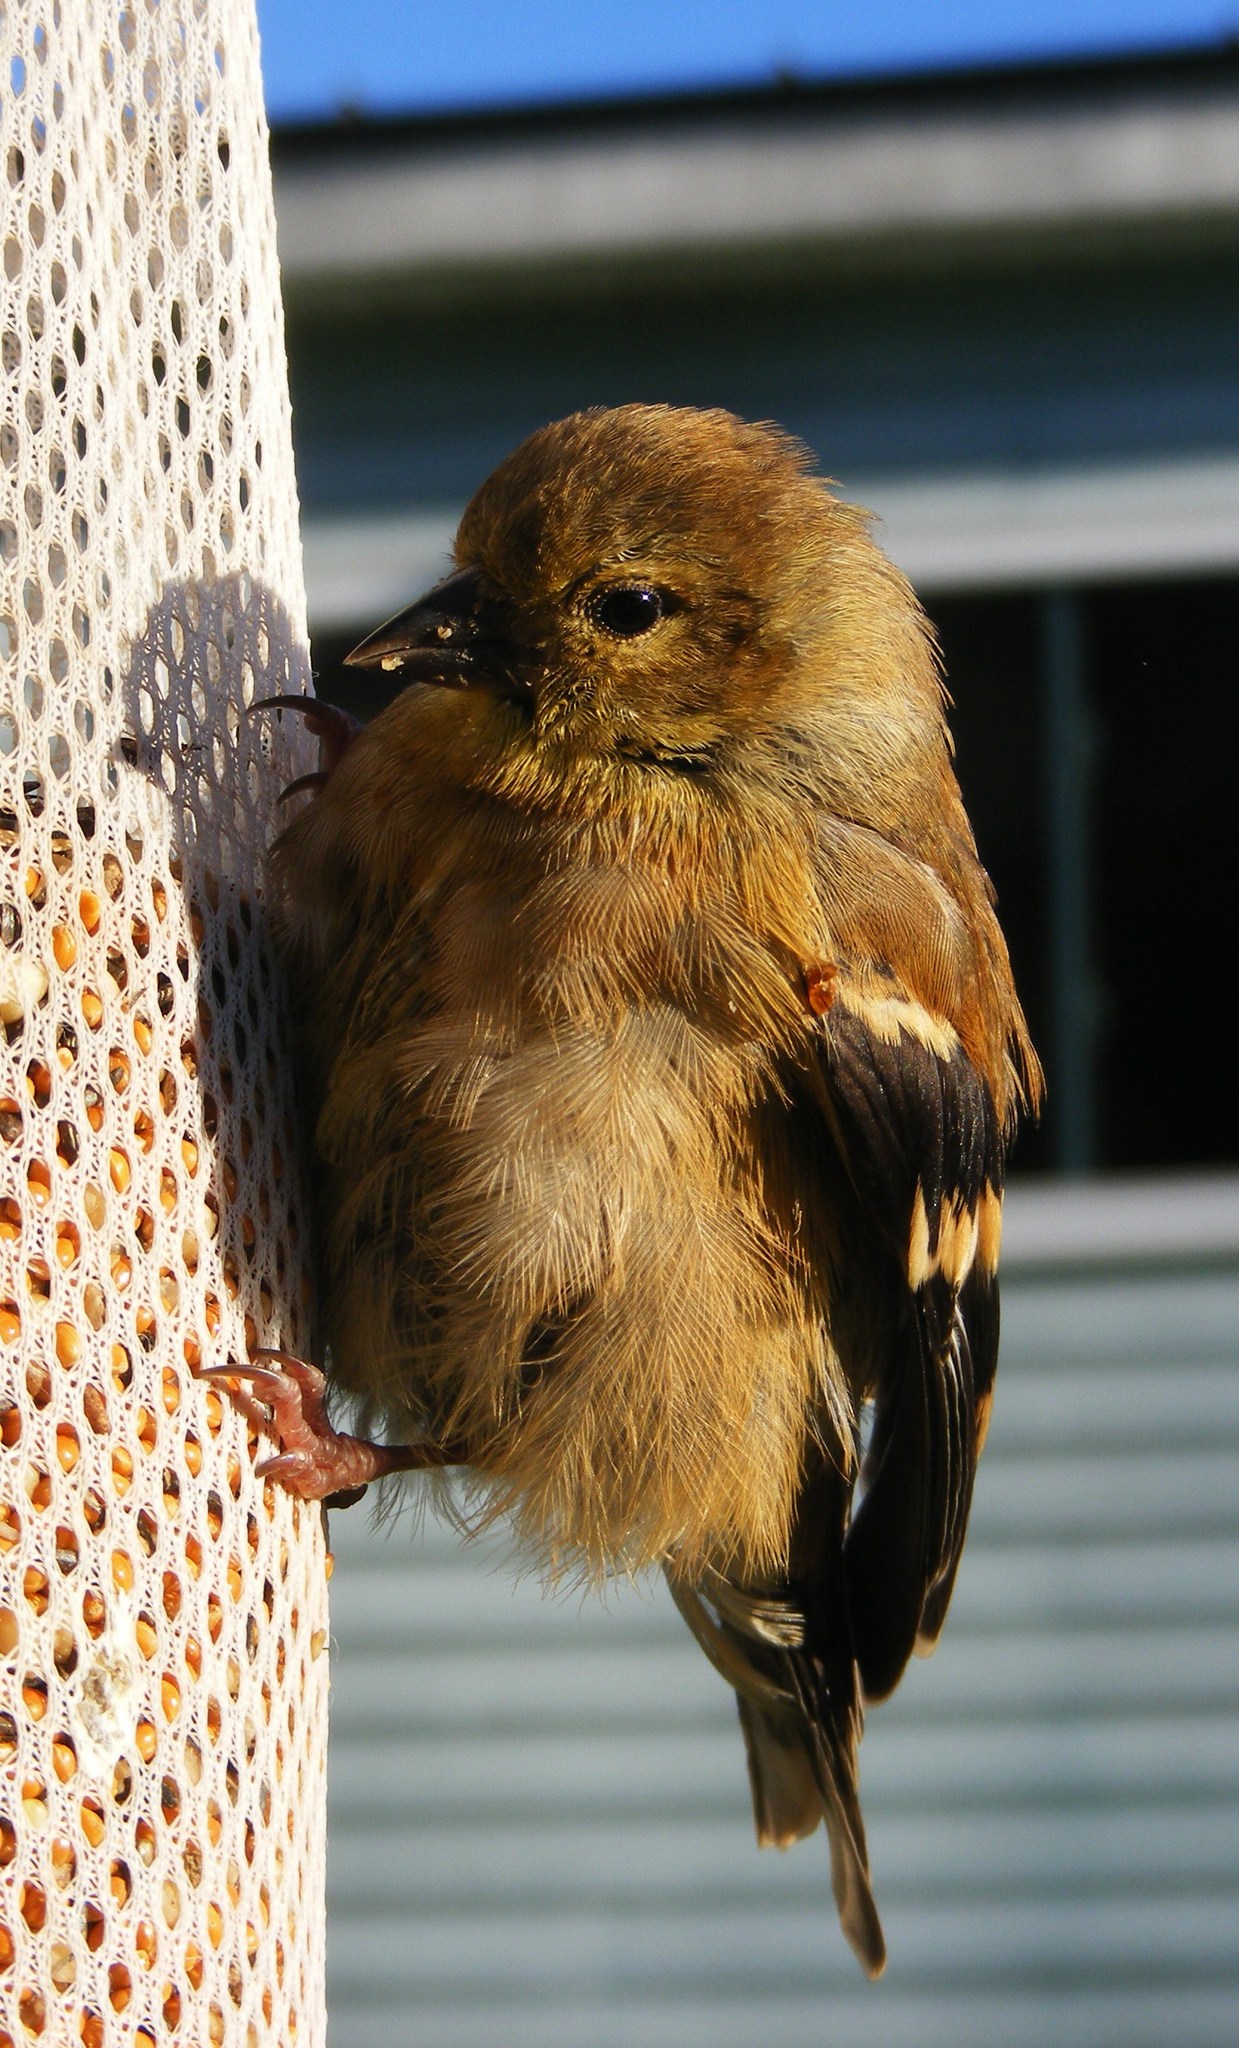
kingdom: Animalia
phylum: Chordata
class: Aves
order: Passeriformes
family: Fringillidae
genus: Spinus
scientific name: Spinus tristis
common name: American goldfinch
